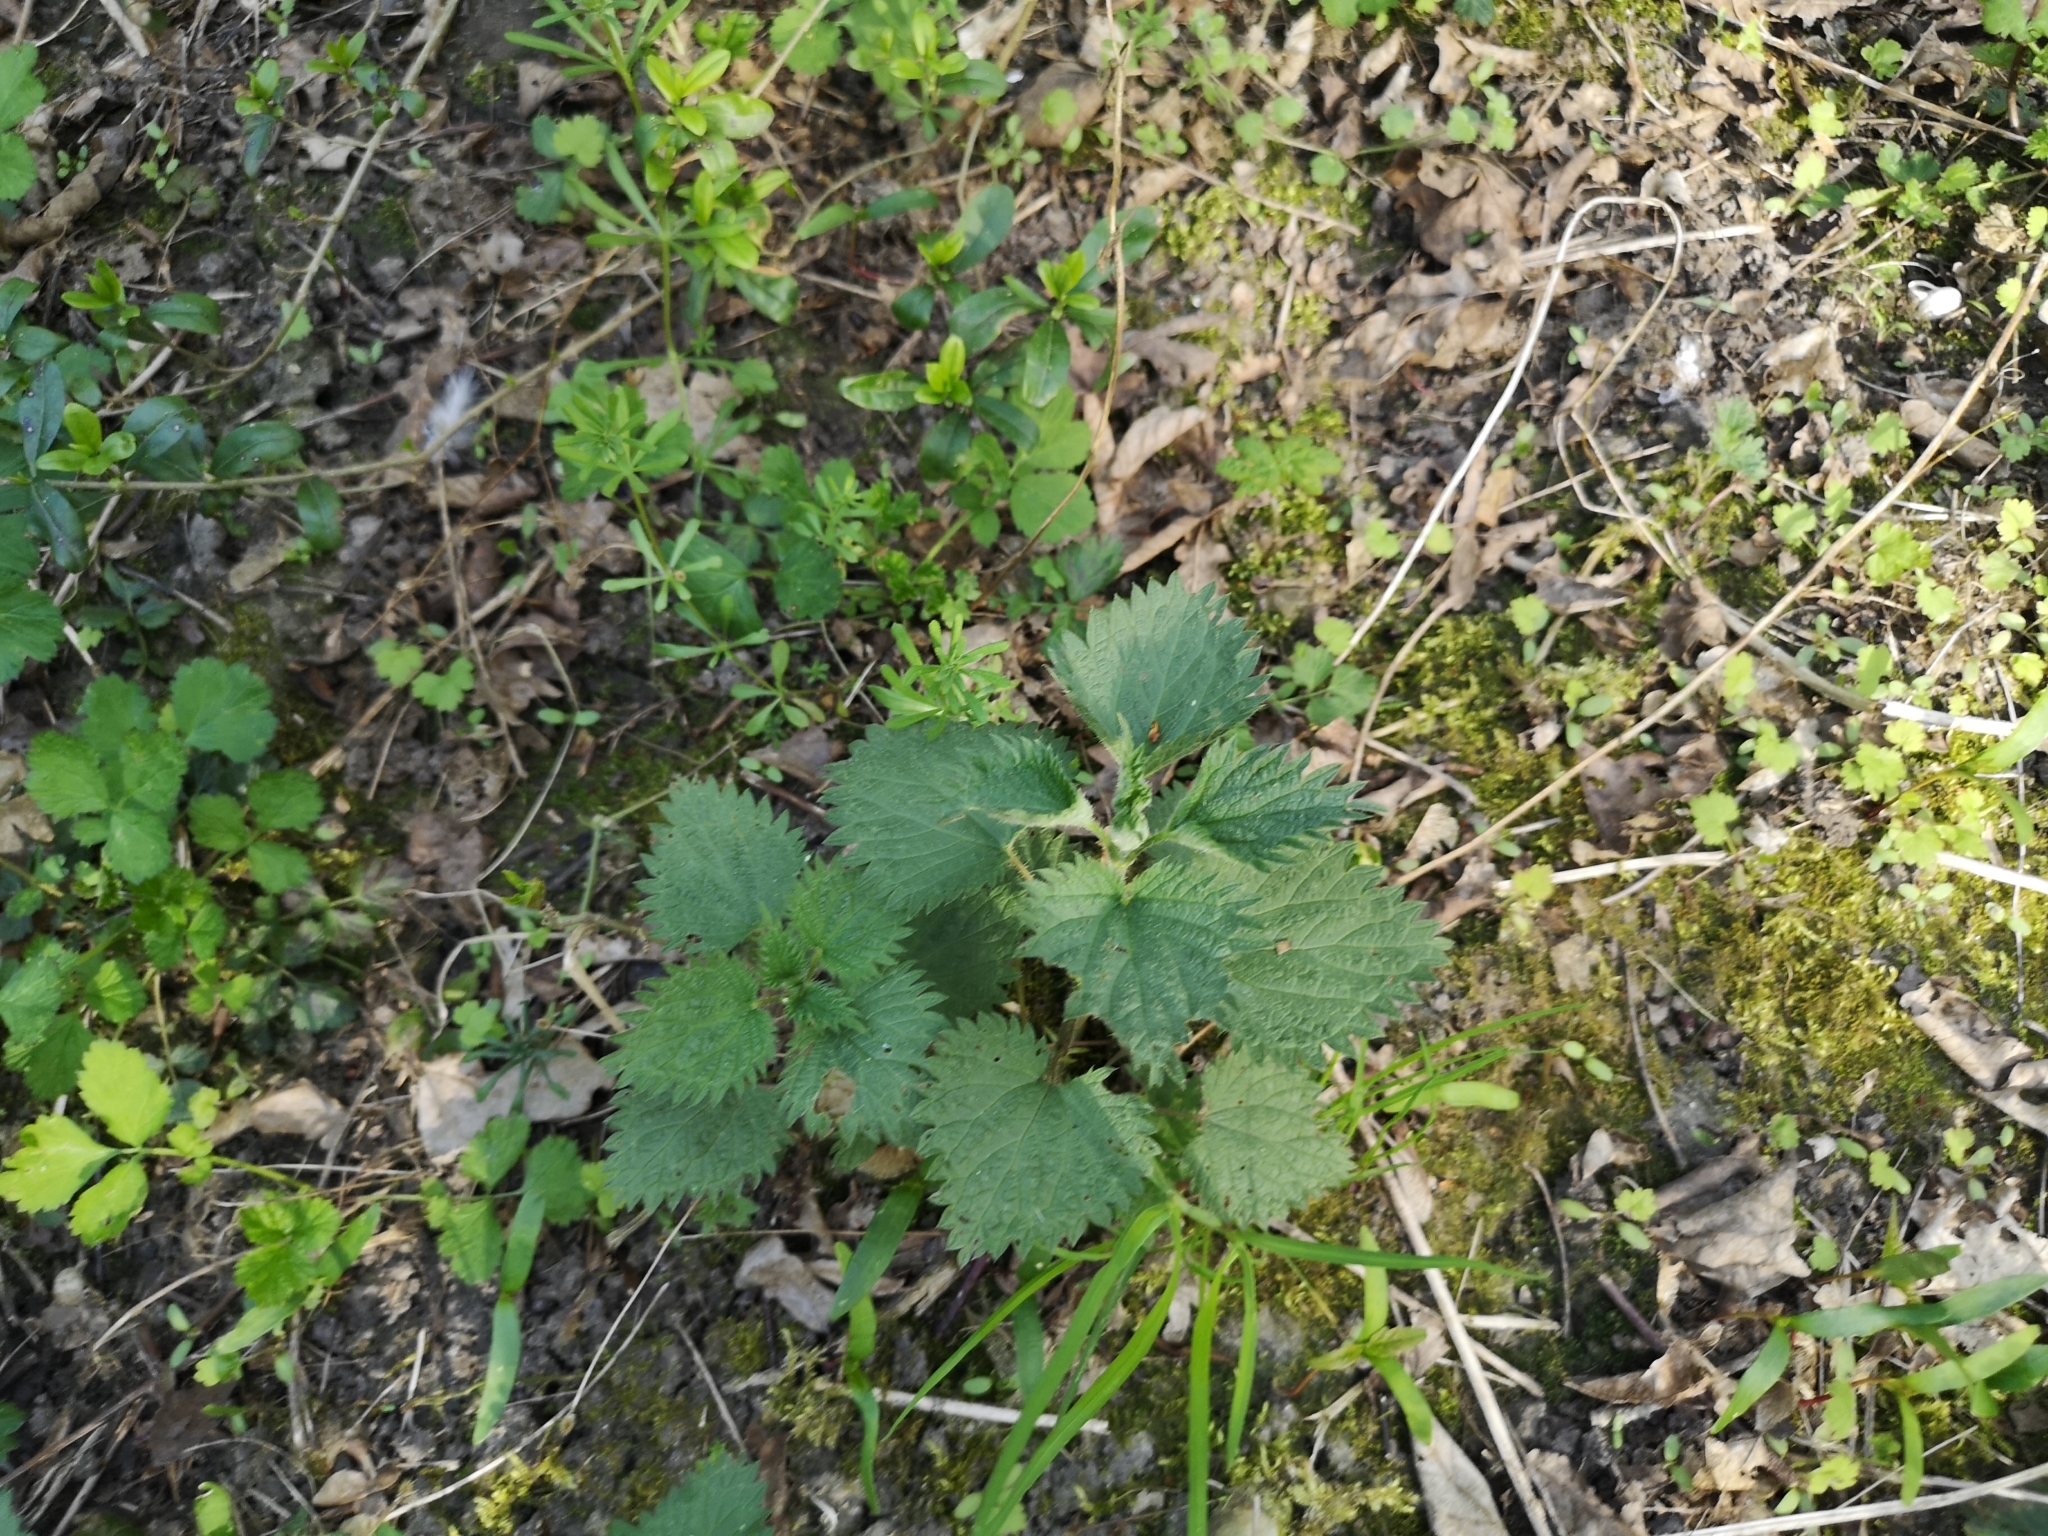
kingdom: Plantae
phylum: Tracheophyta
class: Magnoliopsida
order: Rosales
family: Urticaceae
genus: Urtica
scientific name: Urtica dioica
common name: Common nettle
